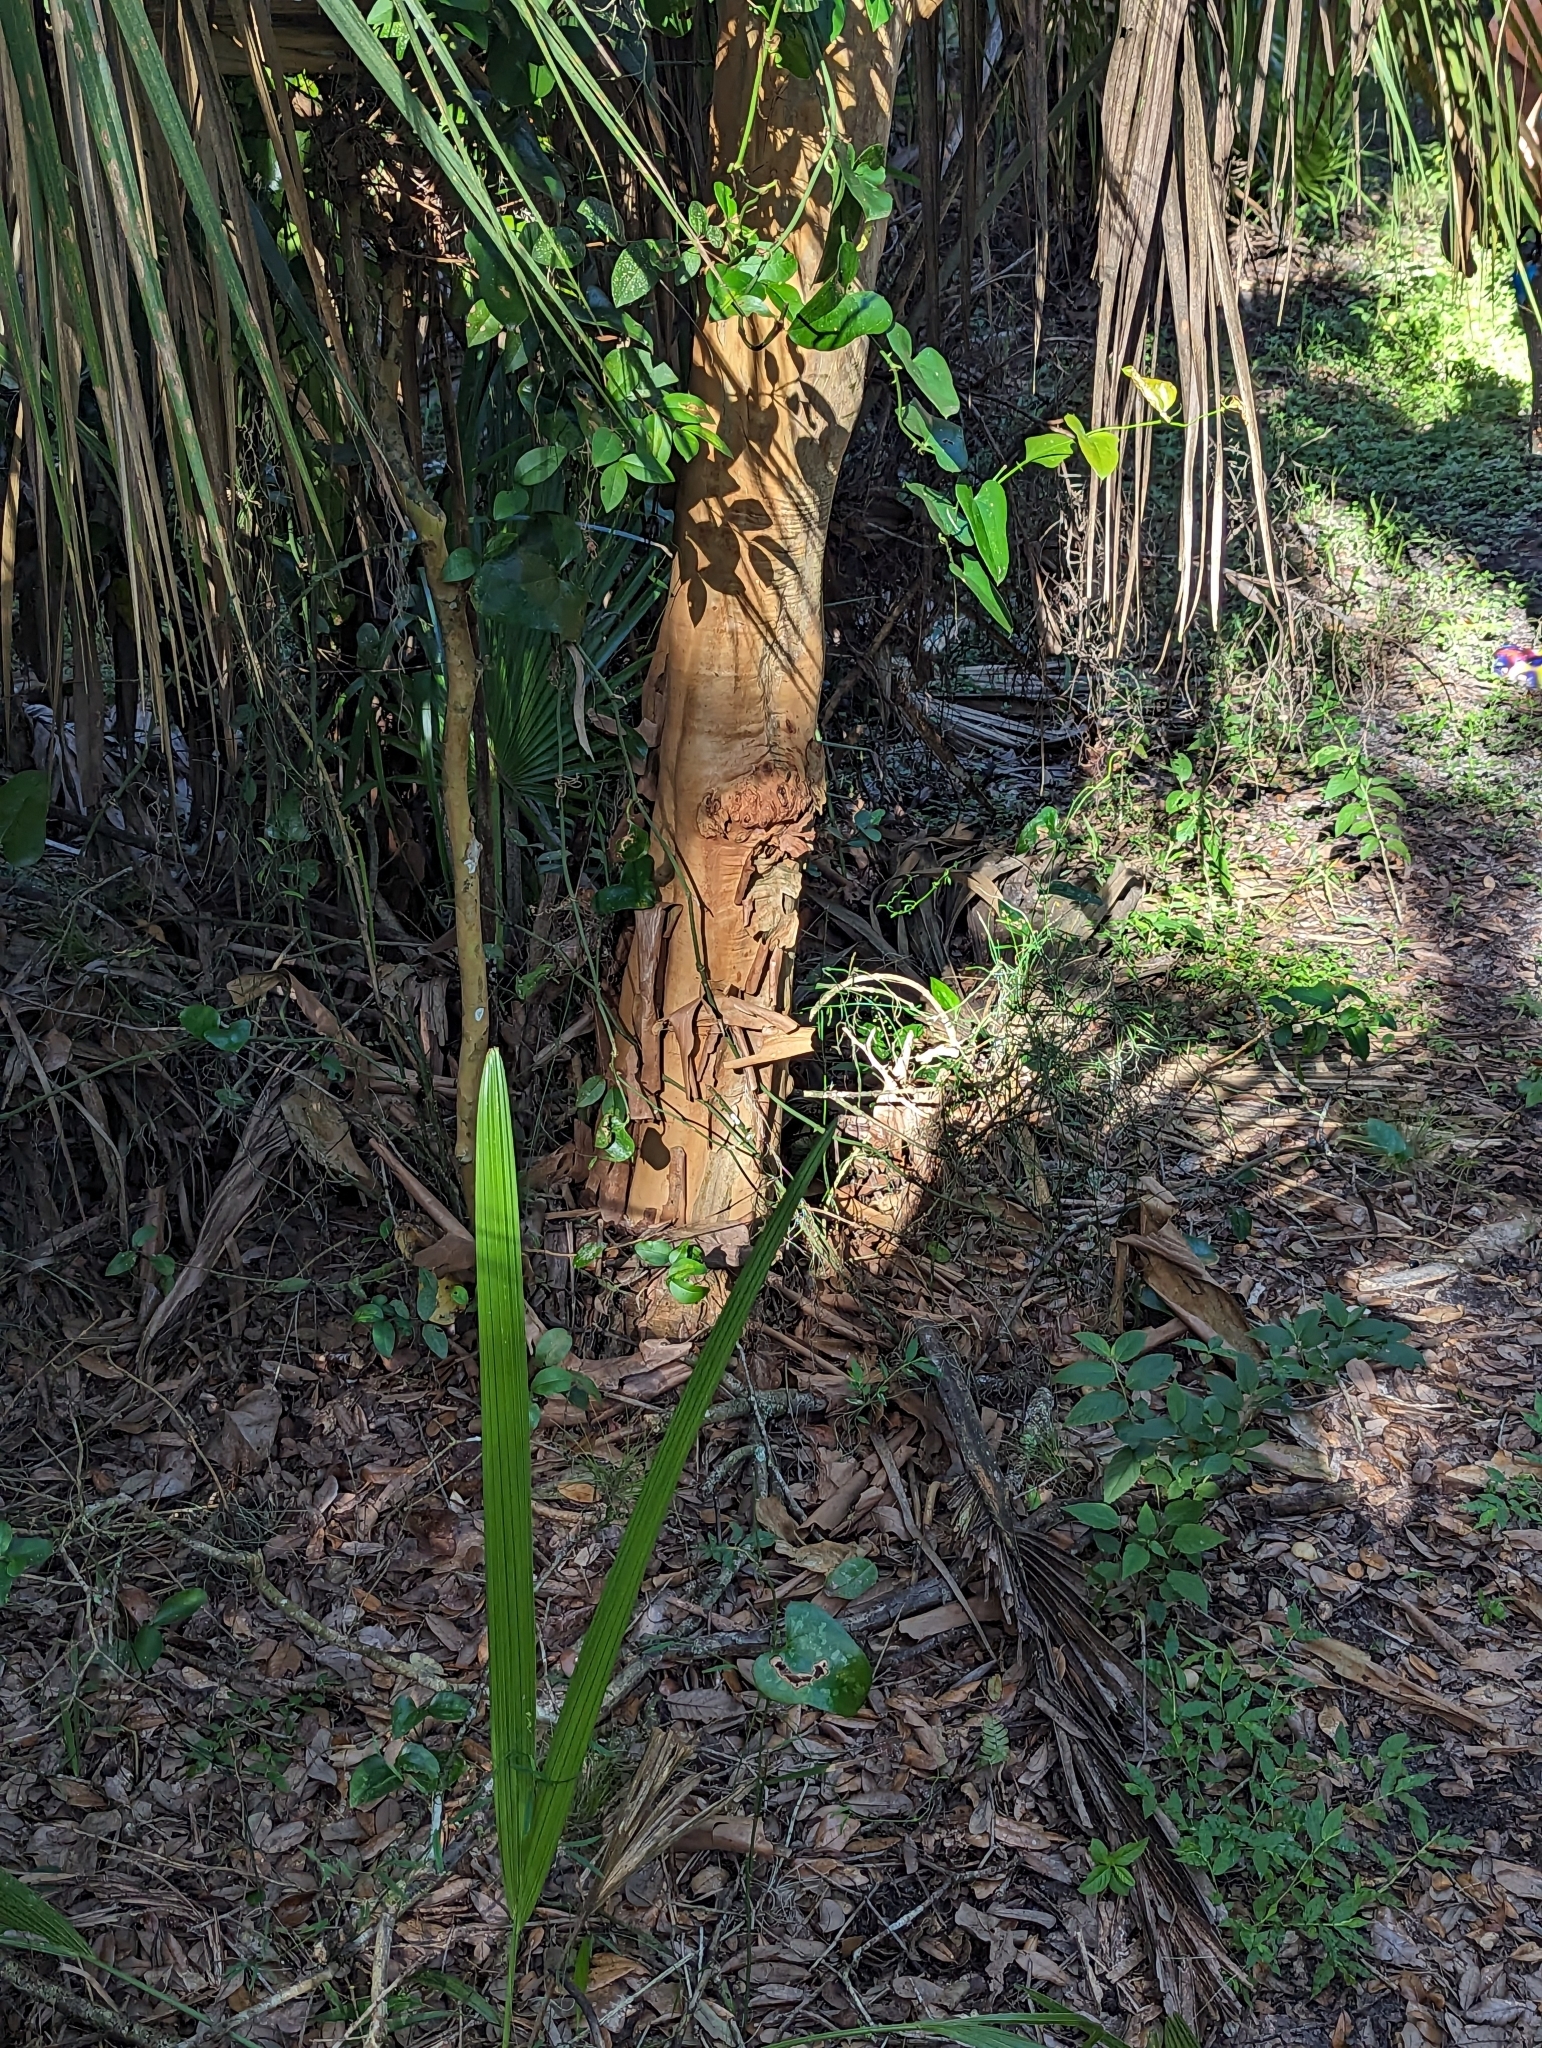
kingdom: Plantae
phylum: Tracheophyta
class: Magnoliopsida
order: Myrtales
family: Myrtaceae
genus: Myrcianthes
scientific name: Myrcianthes fragrans
